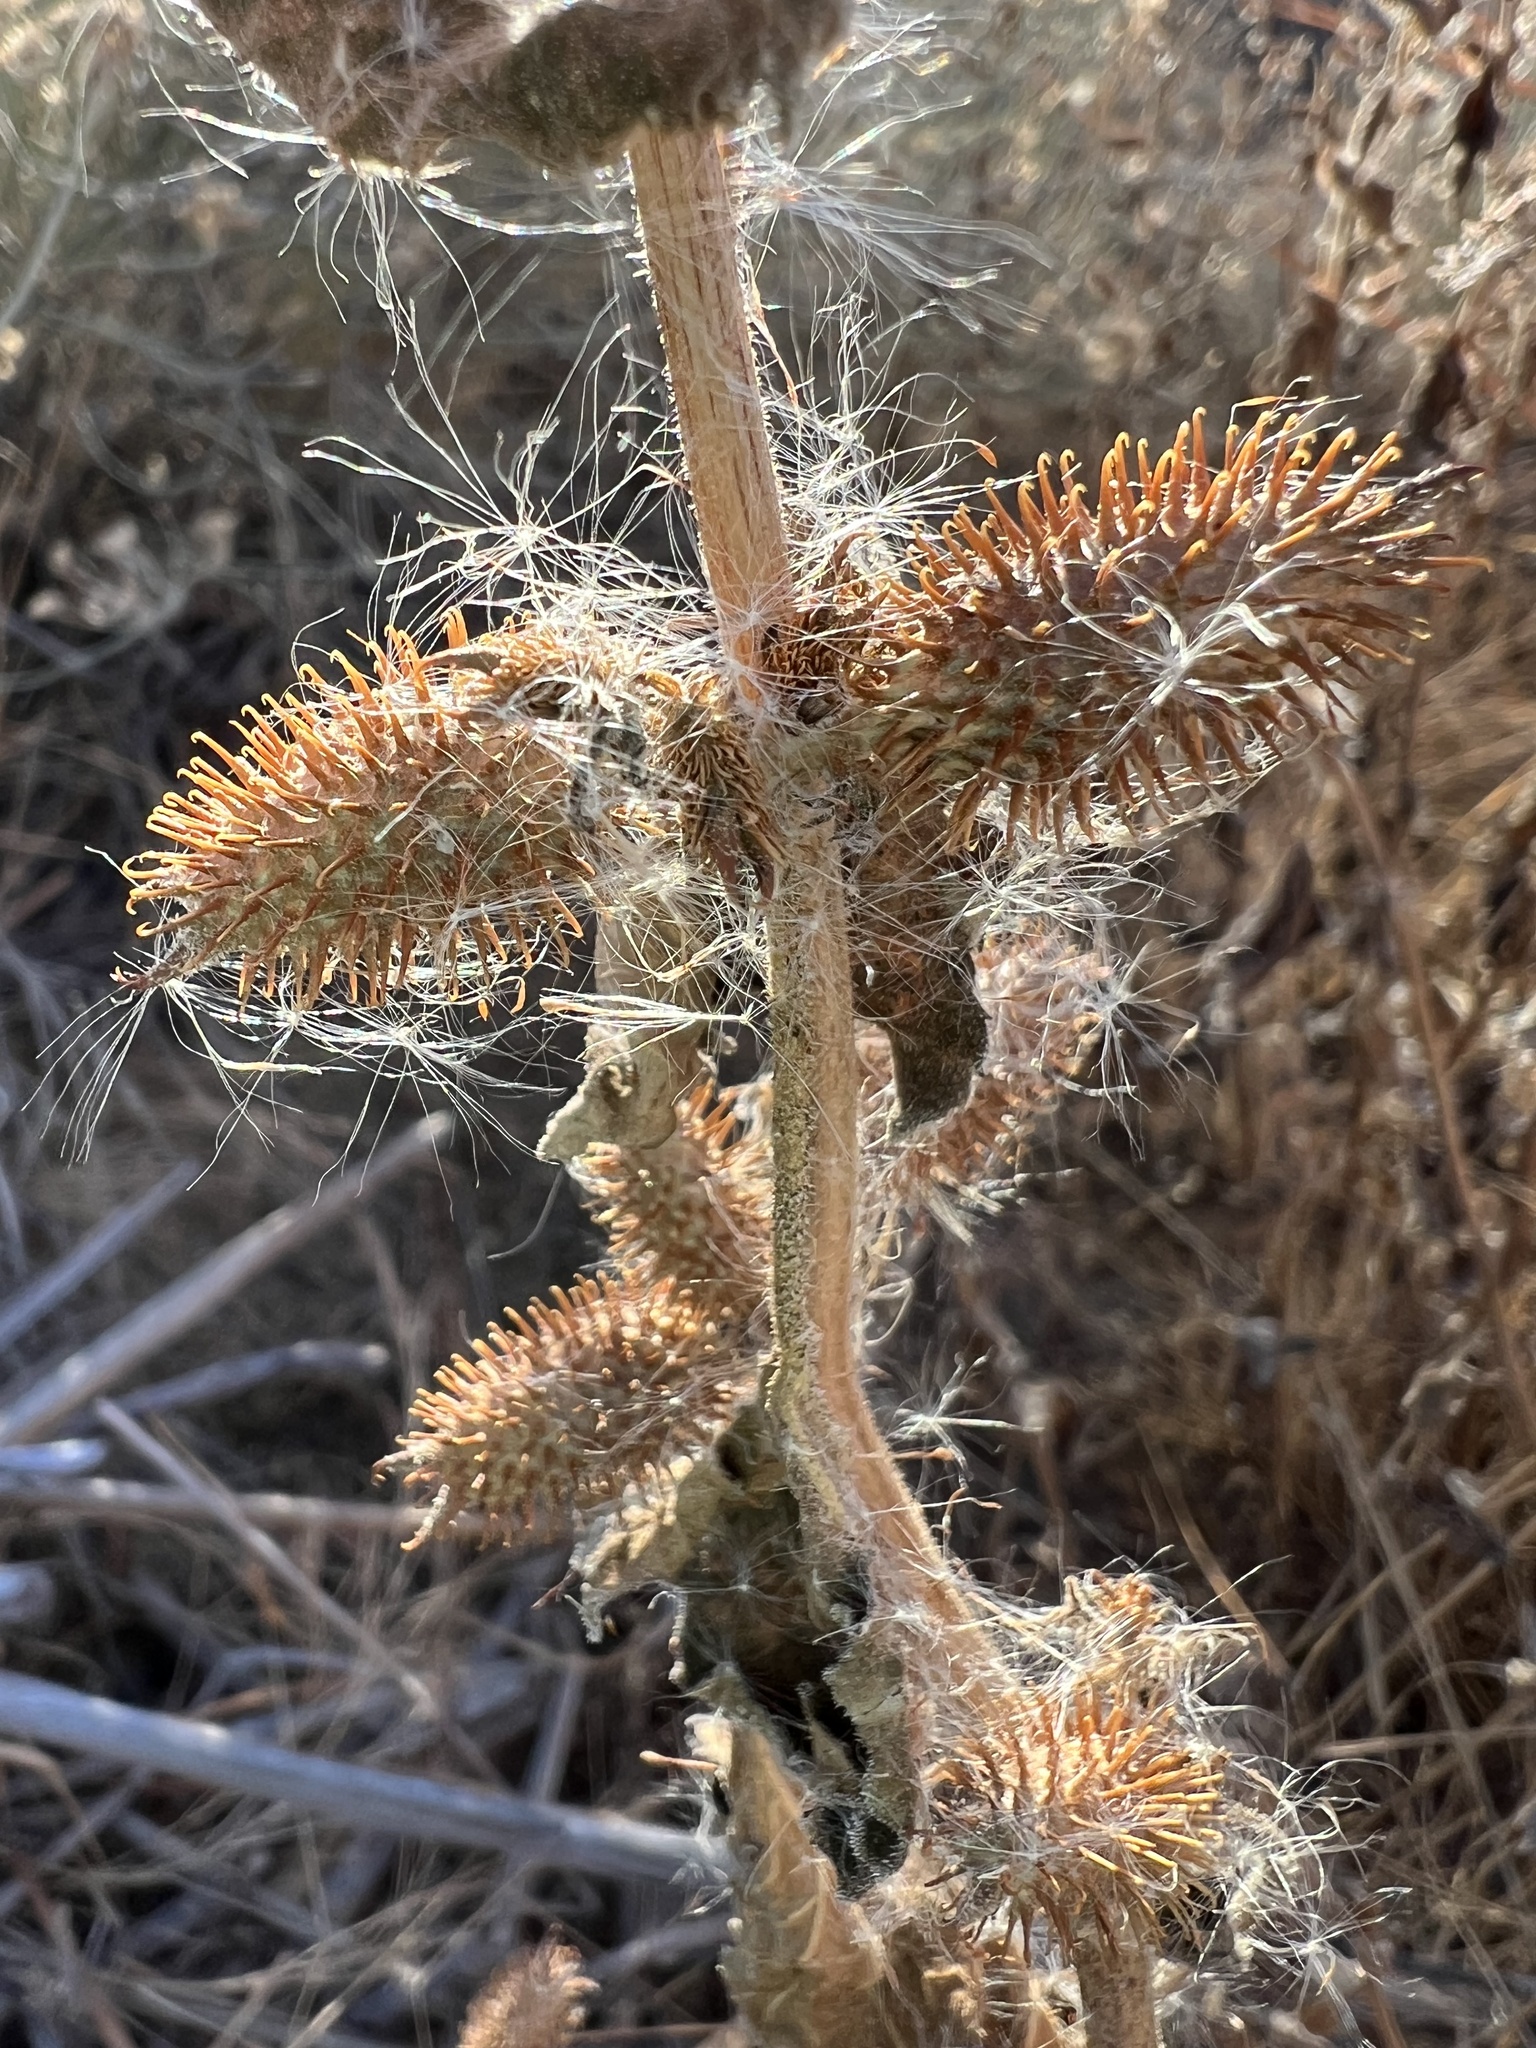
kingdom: Plantae
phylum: Tracheophyta
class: Magnoliopsida
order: Asterales
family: Asteraceae
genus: Xanthium
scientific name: Xanthium orientale
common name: Californian burr
